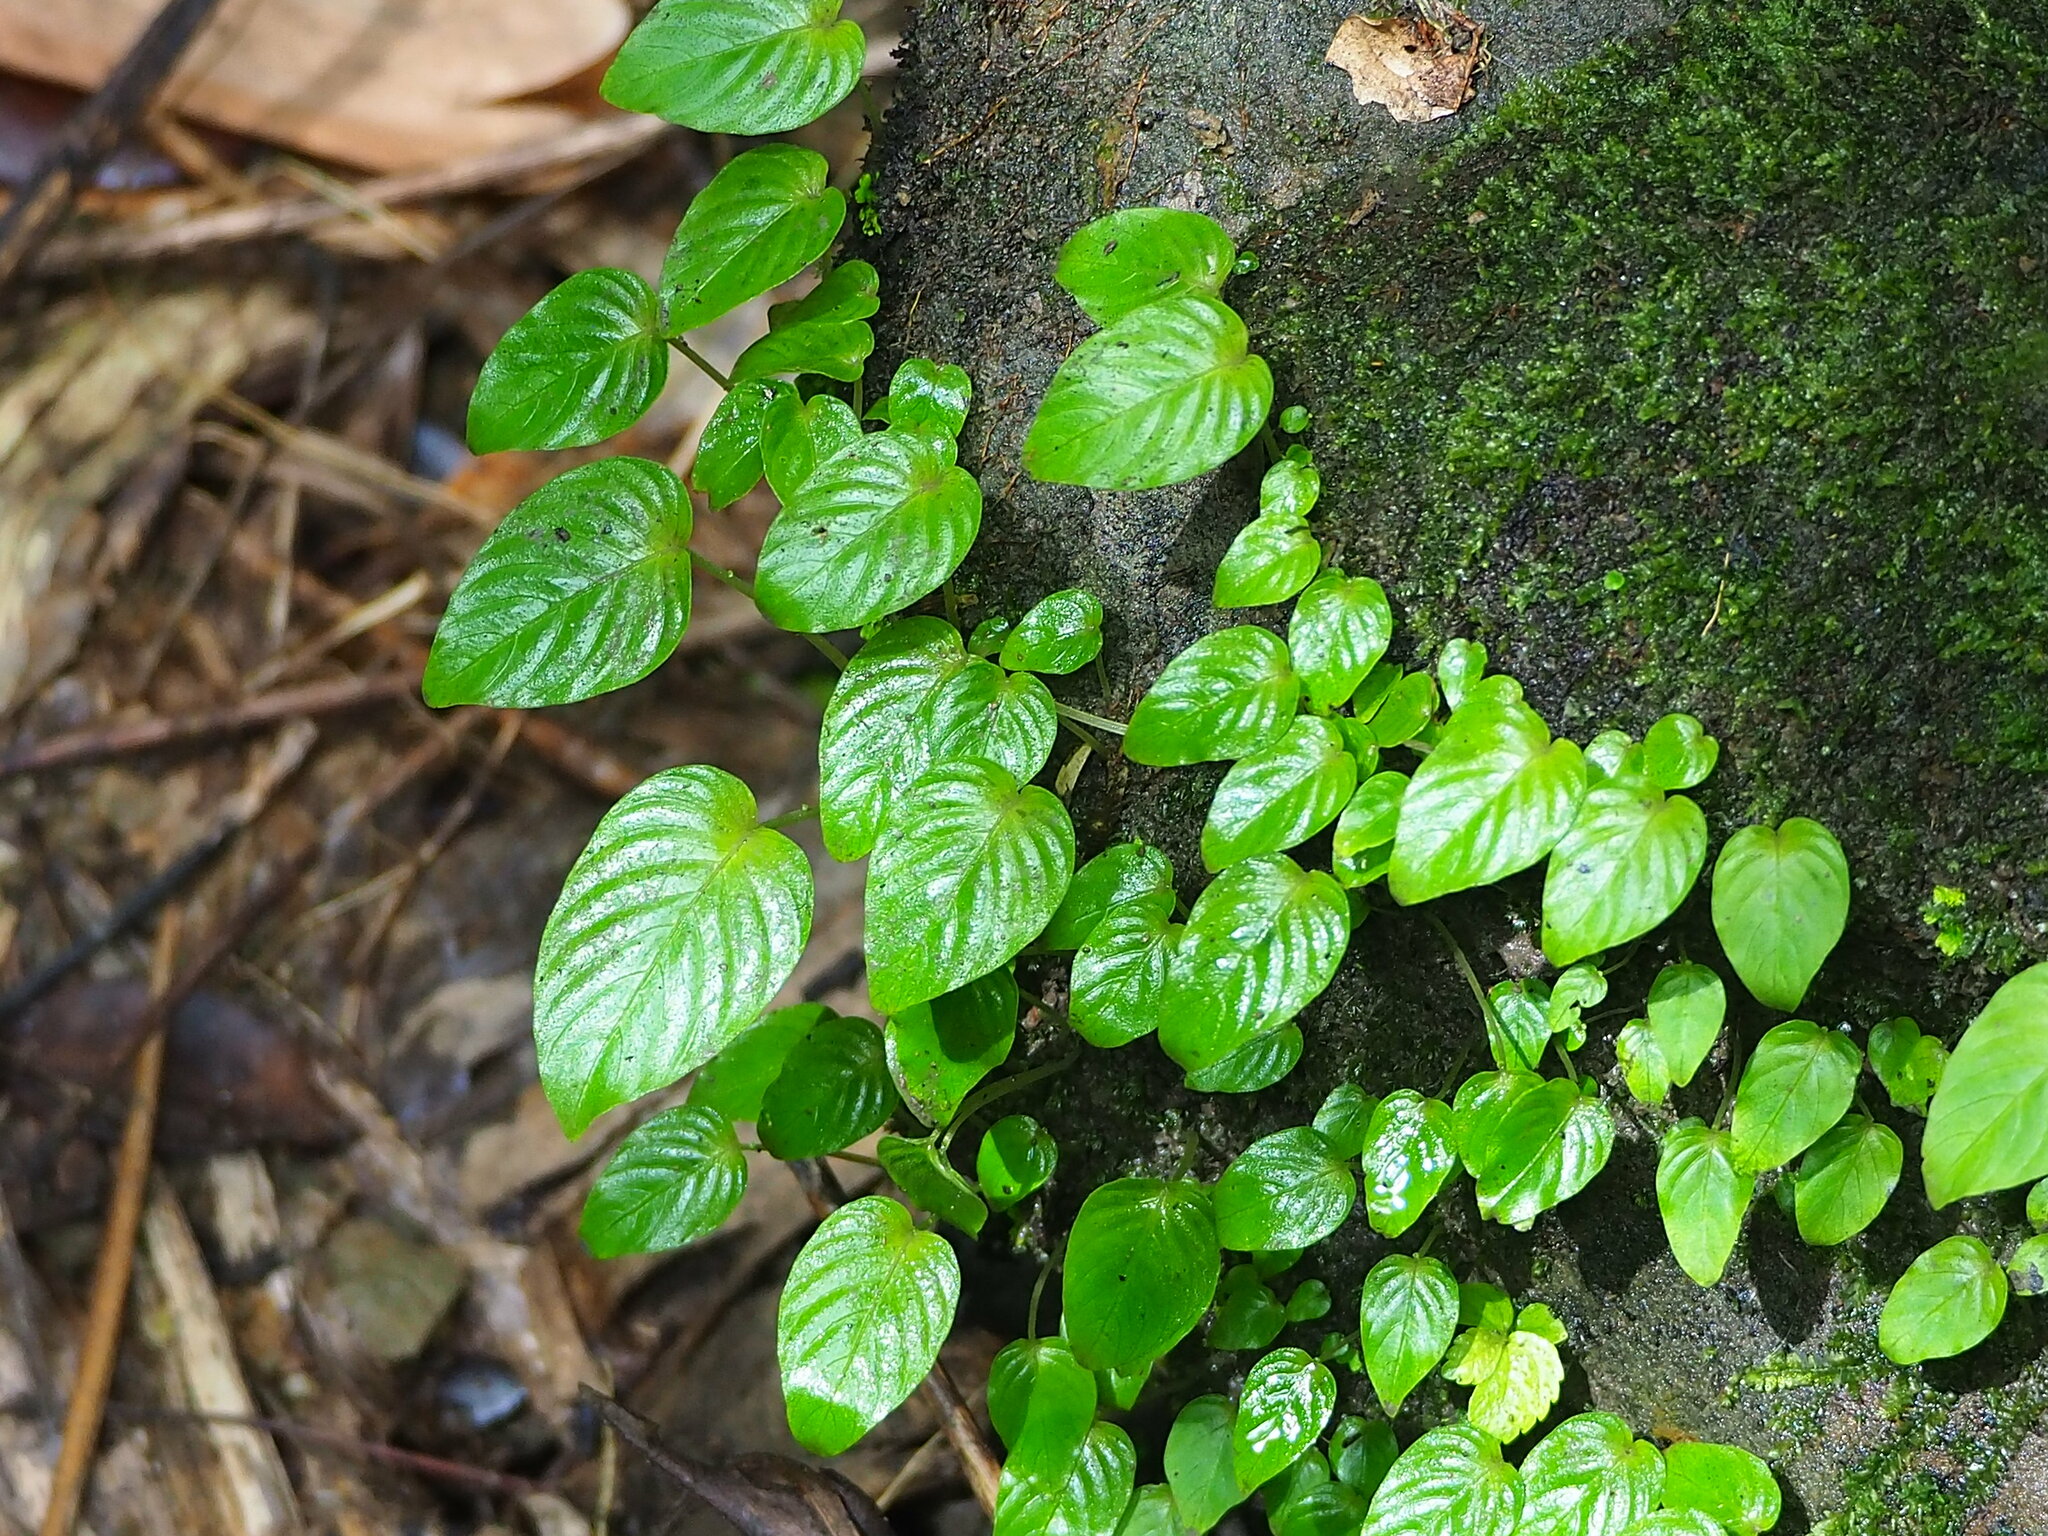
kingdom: Plantae
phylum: Tracheophyta
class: Magnoliopsida
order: Lamiales
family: Gesneriaceae
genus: Rhynchoglossum
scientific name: Rhynchoglossum obliquum
